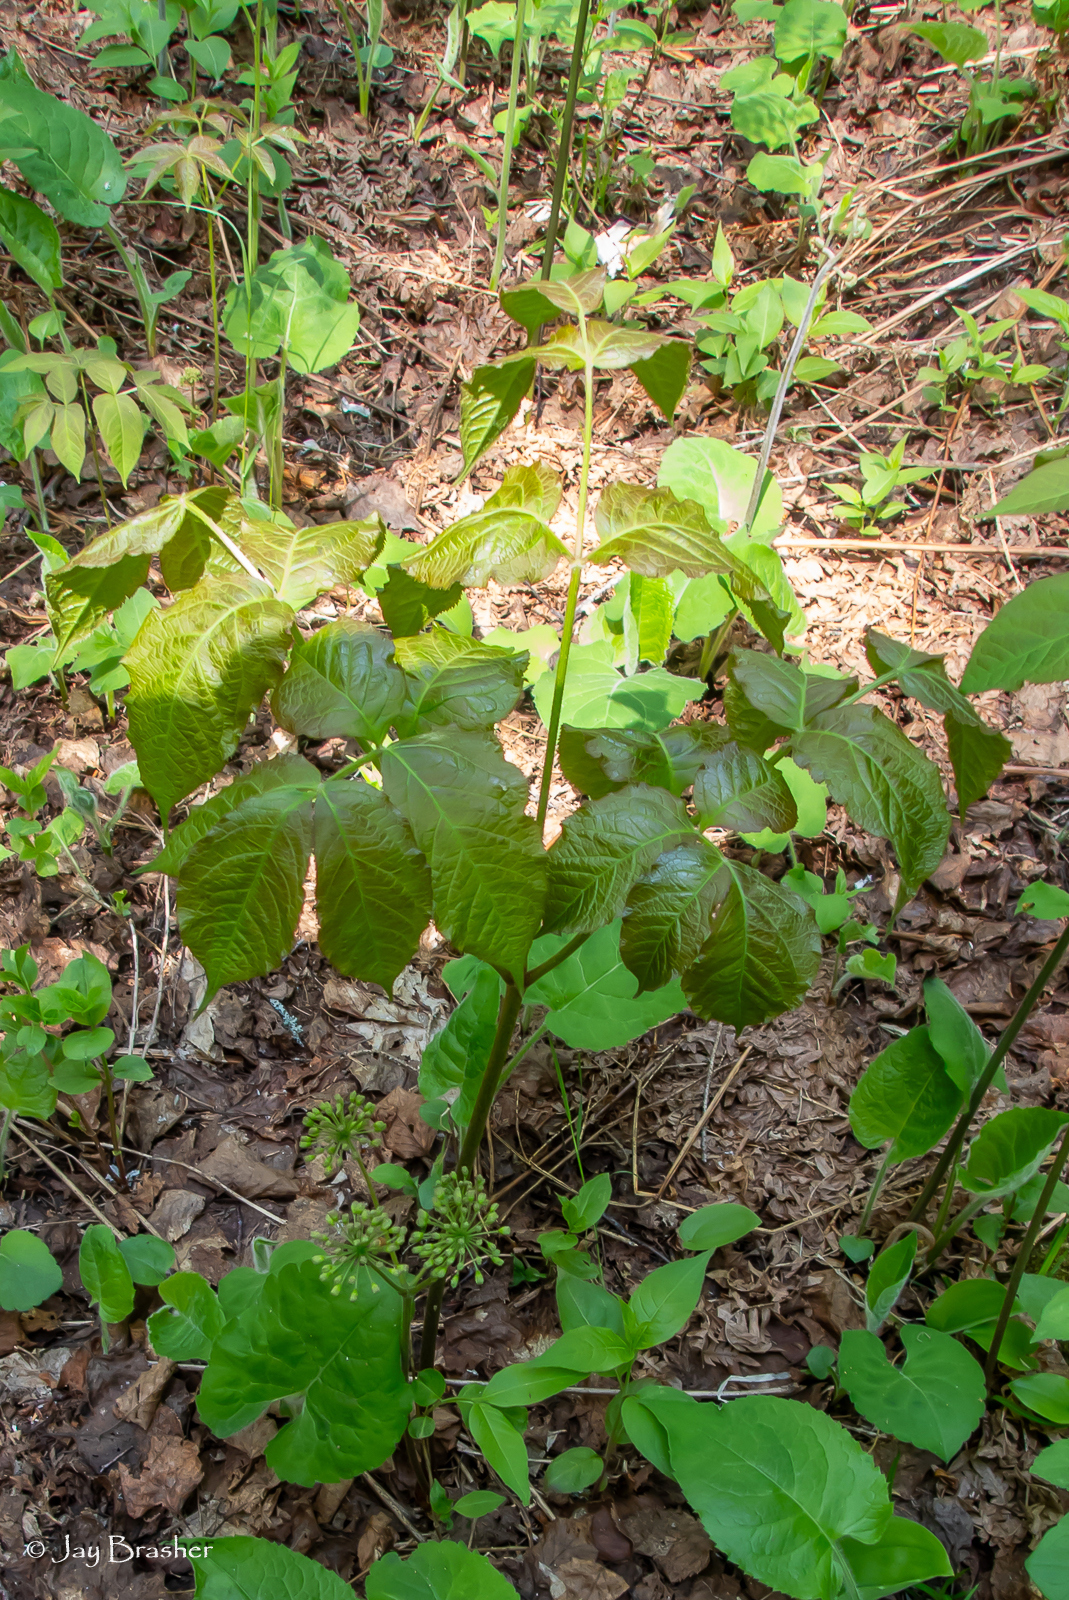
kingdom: Plantae
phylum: Tracheophyta
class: Magnoliopsida
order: Apiales
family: Araliaceae
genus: Aralia
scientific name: Aralia nudicaulis
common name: Wild sarsaparilla
